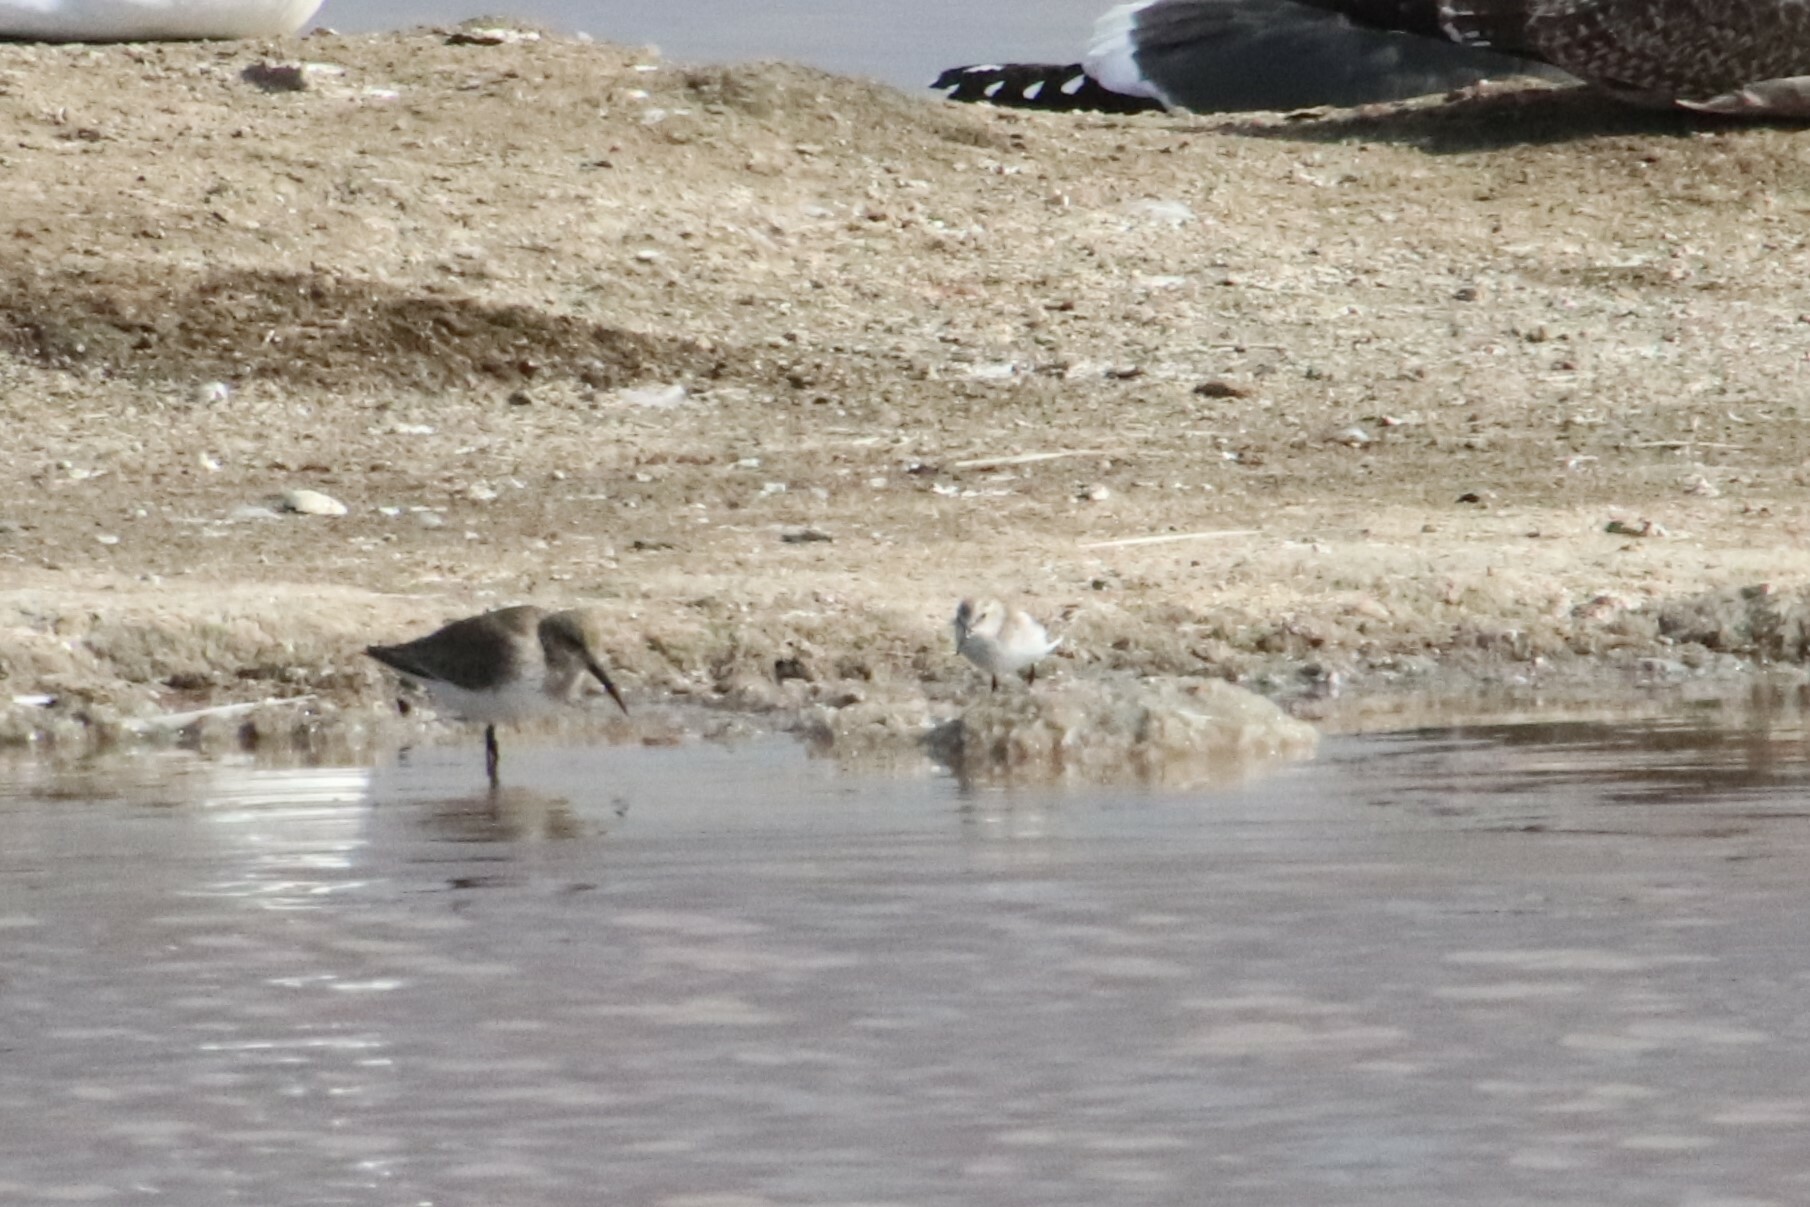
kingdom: Animalia
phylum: Chordata
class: Aves
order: Charadriiformes
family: Scolopacidae
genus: Calidris
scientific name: Calidris minuta
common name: Little stint
